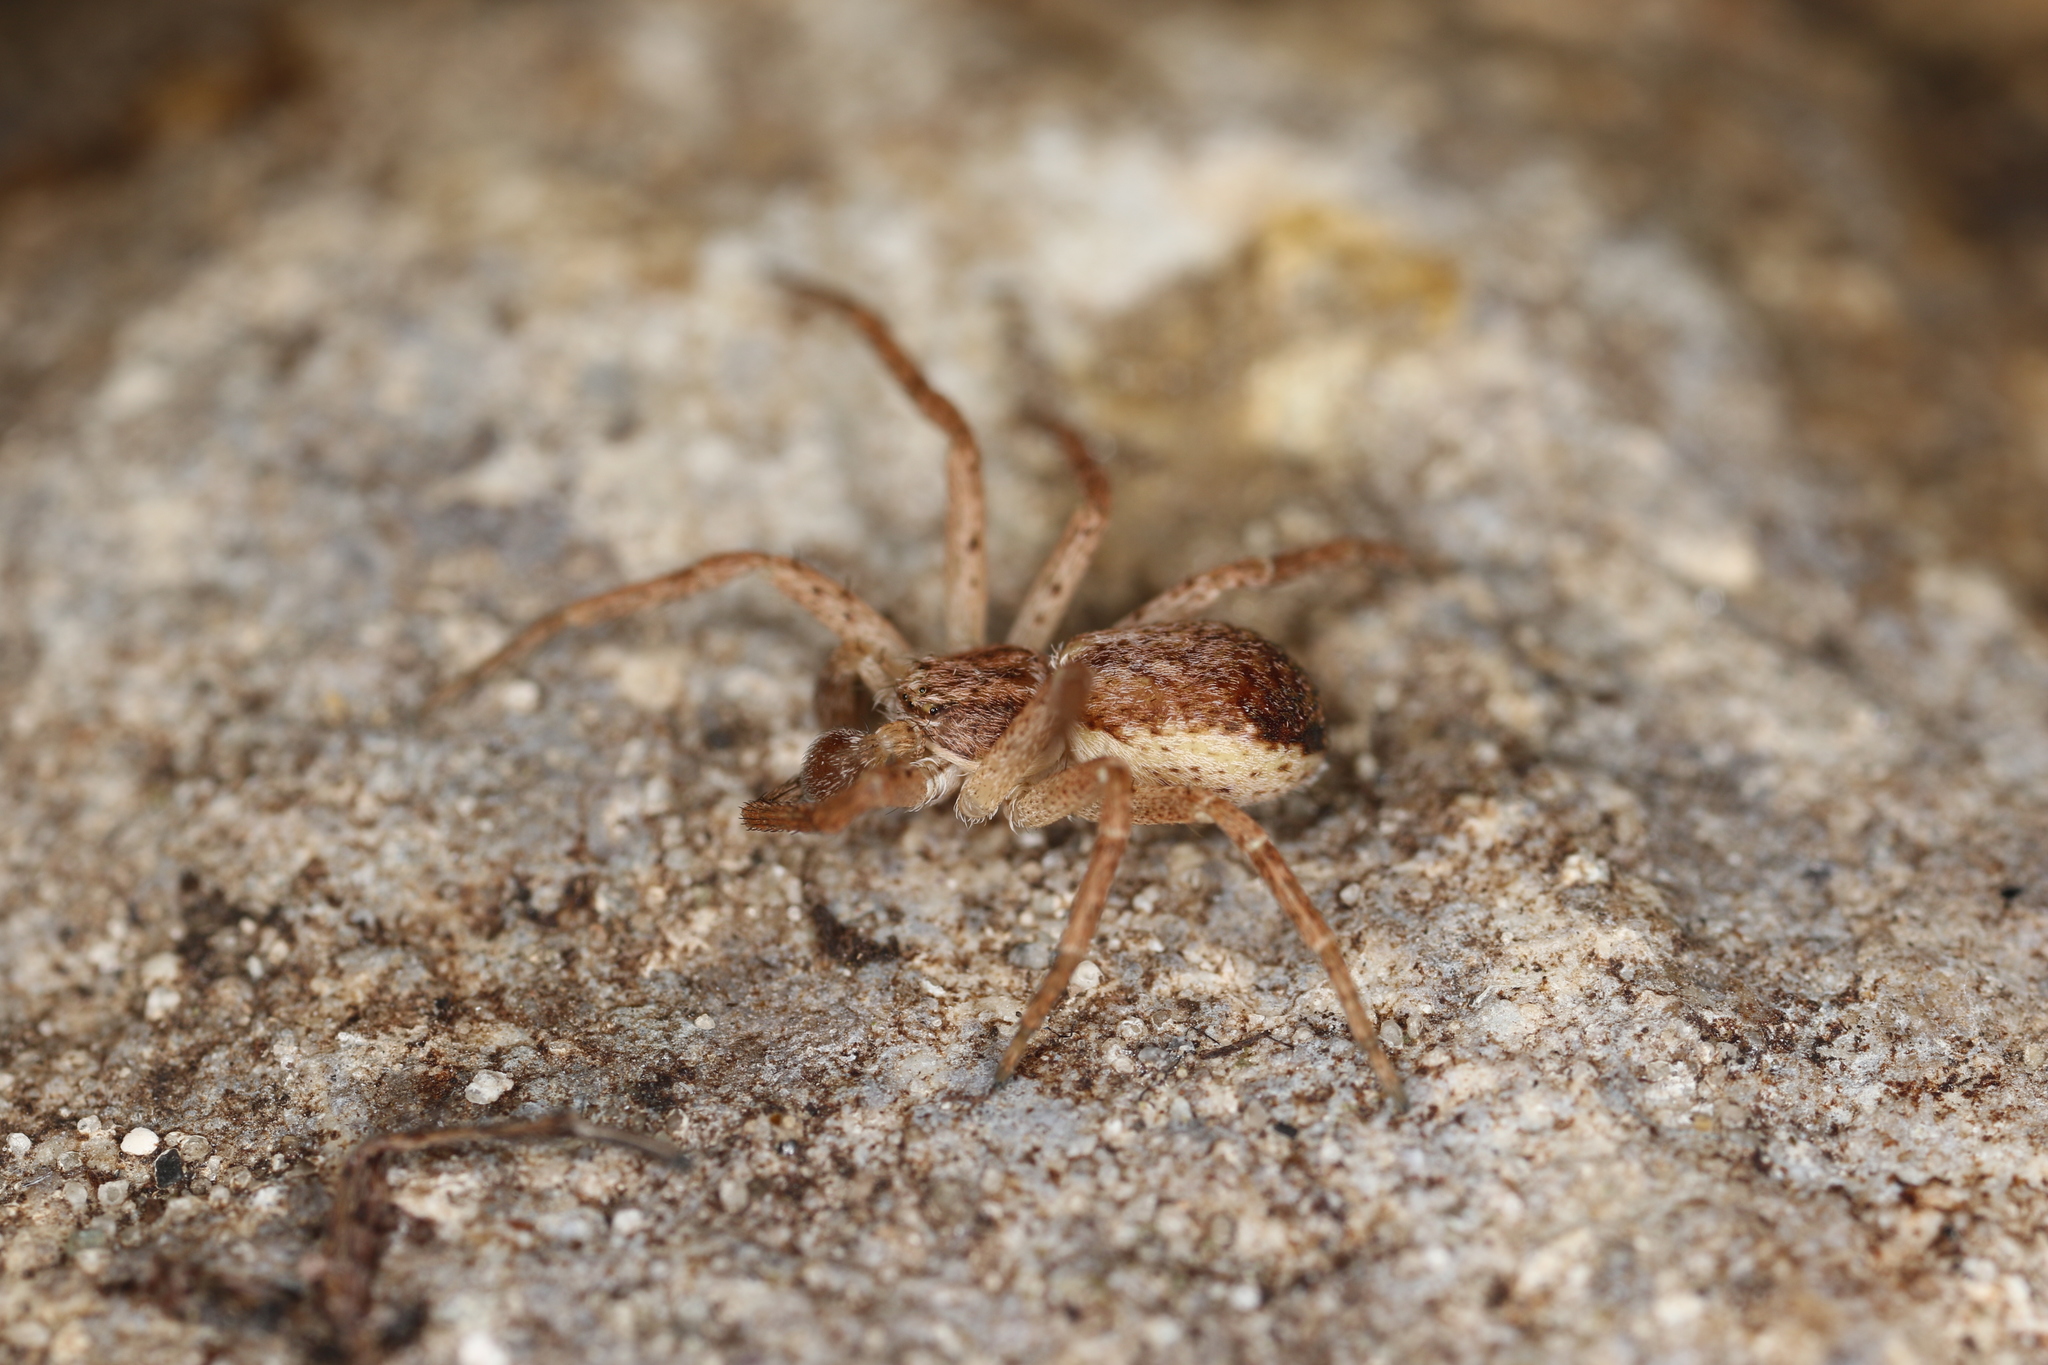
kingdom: Animalia
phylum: Arthropoda
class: Arachnida
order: Araneae
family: Philodromidae
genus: Philodromus
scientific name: Philodromus dispar
